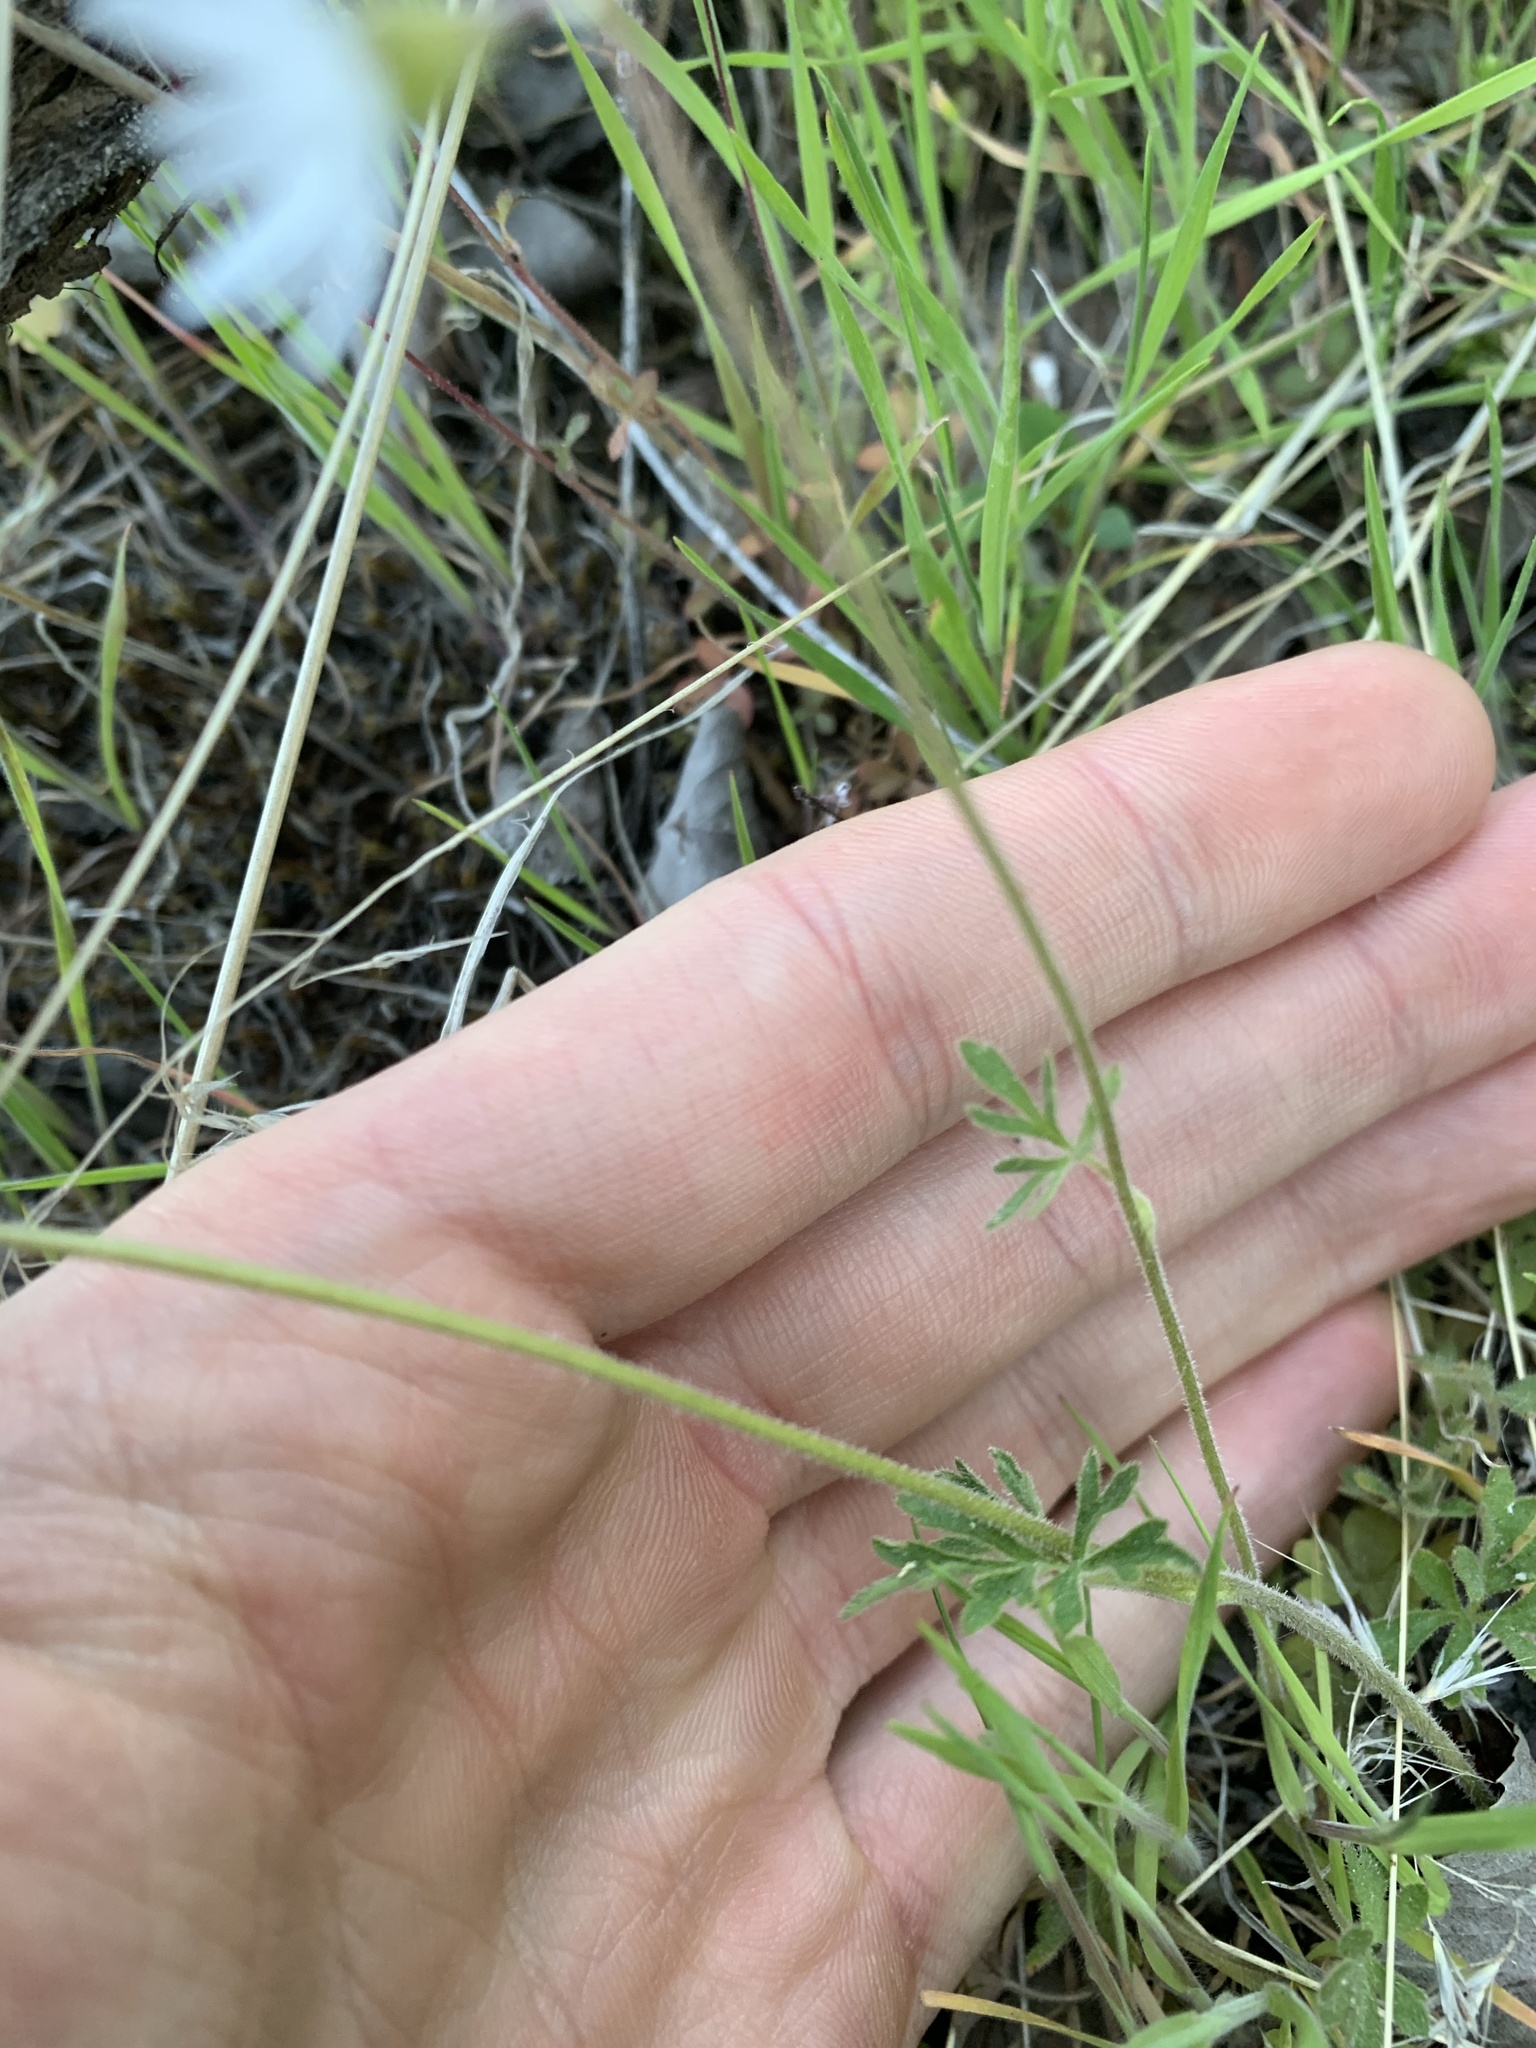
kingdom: Plantae
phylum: Tracheophyta
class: Magnoliopsida
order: Saxifragales
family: Saxifragaceae
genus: Lithophragma
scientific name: Lithophragma parviflorum
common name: Small-flowered fringe-cup
